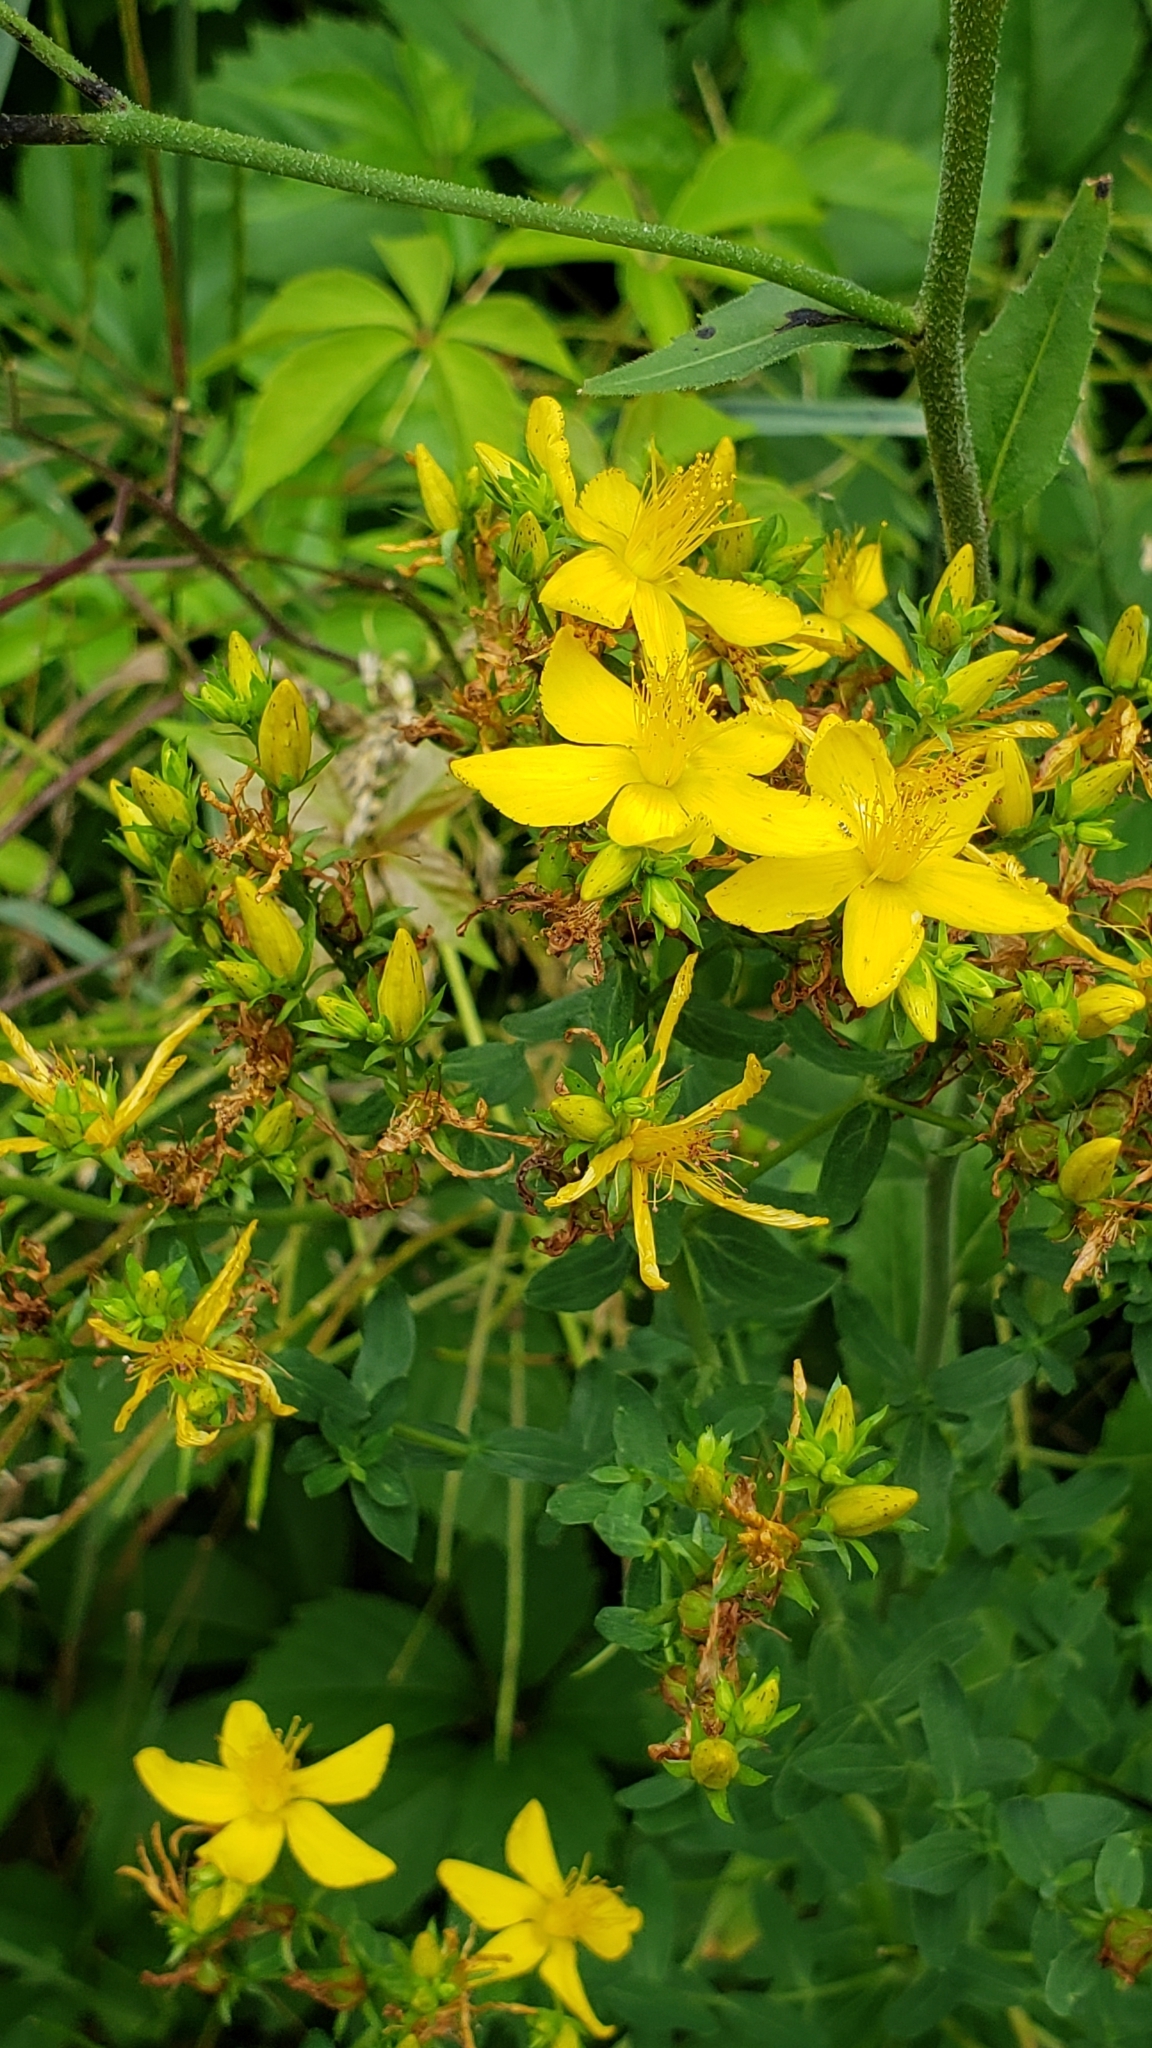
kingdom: Plantae
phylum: Tracheophyta
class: Magnoliopsida
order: Malpighiales
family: Hypericaceae
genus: Hypericum
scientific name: Hypericum perforatum
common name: Common st. johnswort
